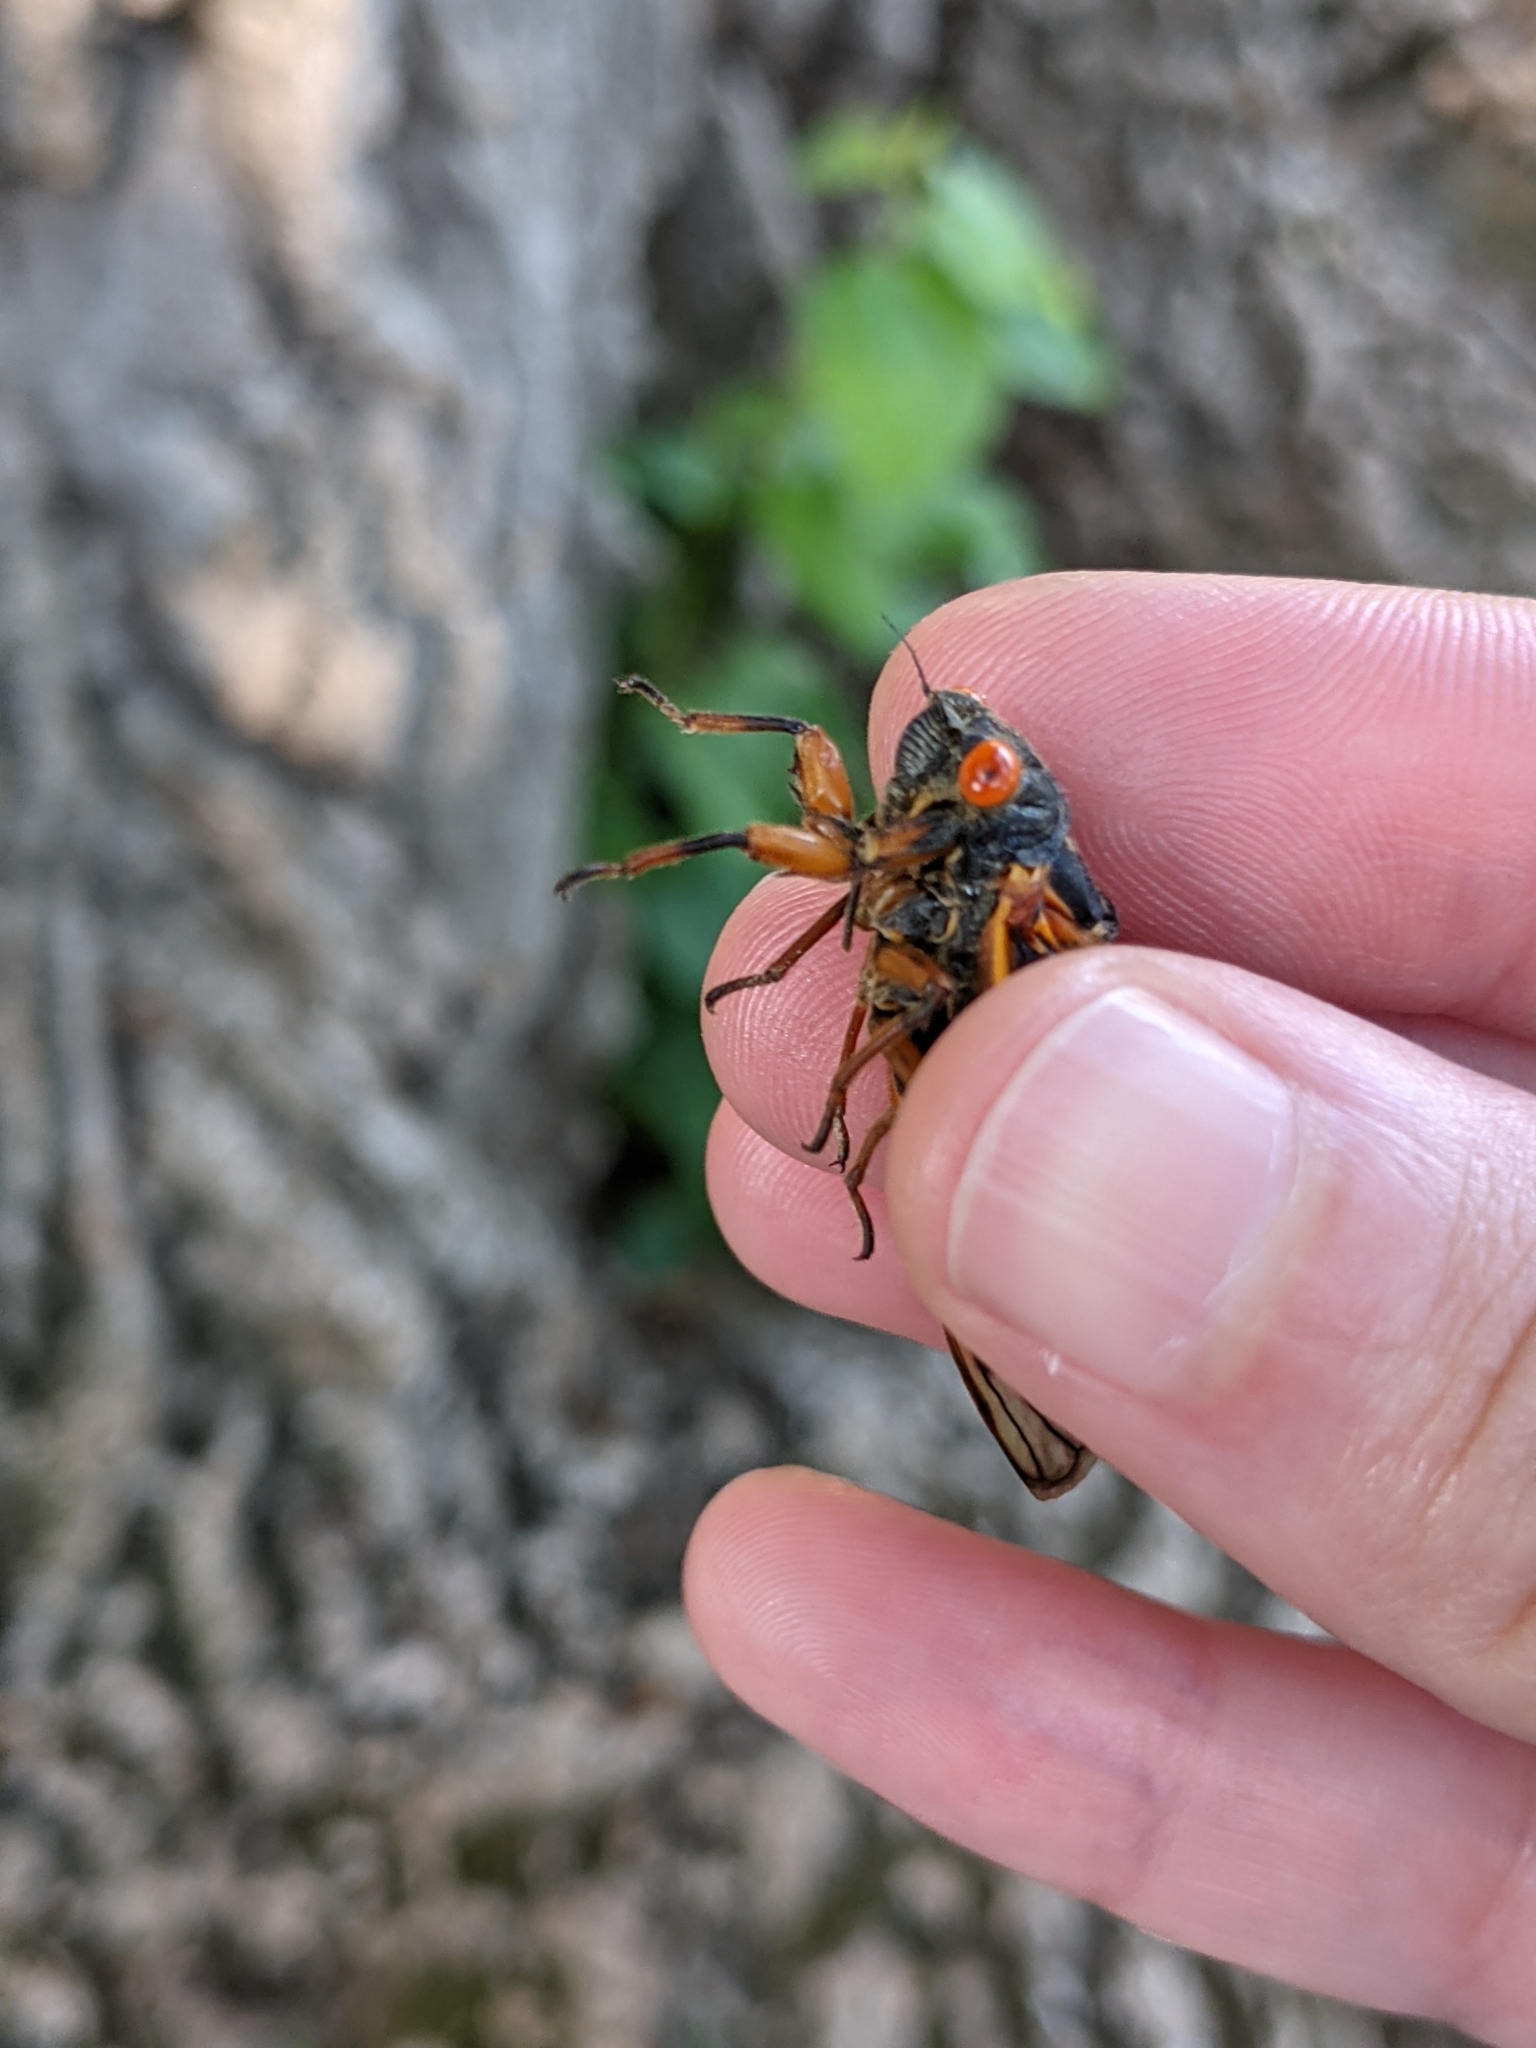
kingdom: Animalia
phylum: Arthropoda
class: Insecta
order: Hemiptera
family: Cicadidae
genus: Magicicada
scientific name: Magicicada cassini
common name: Cassin's 17-year cicada
